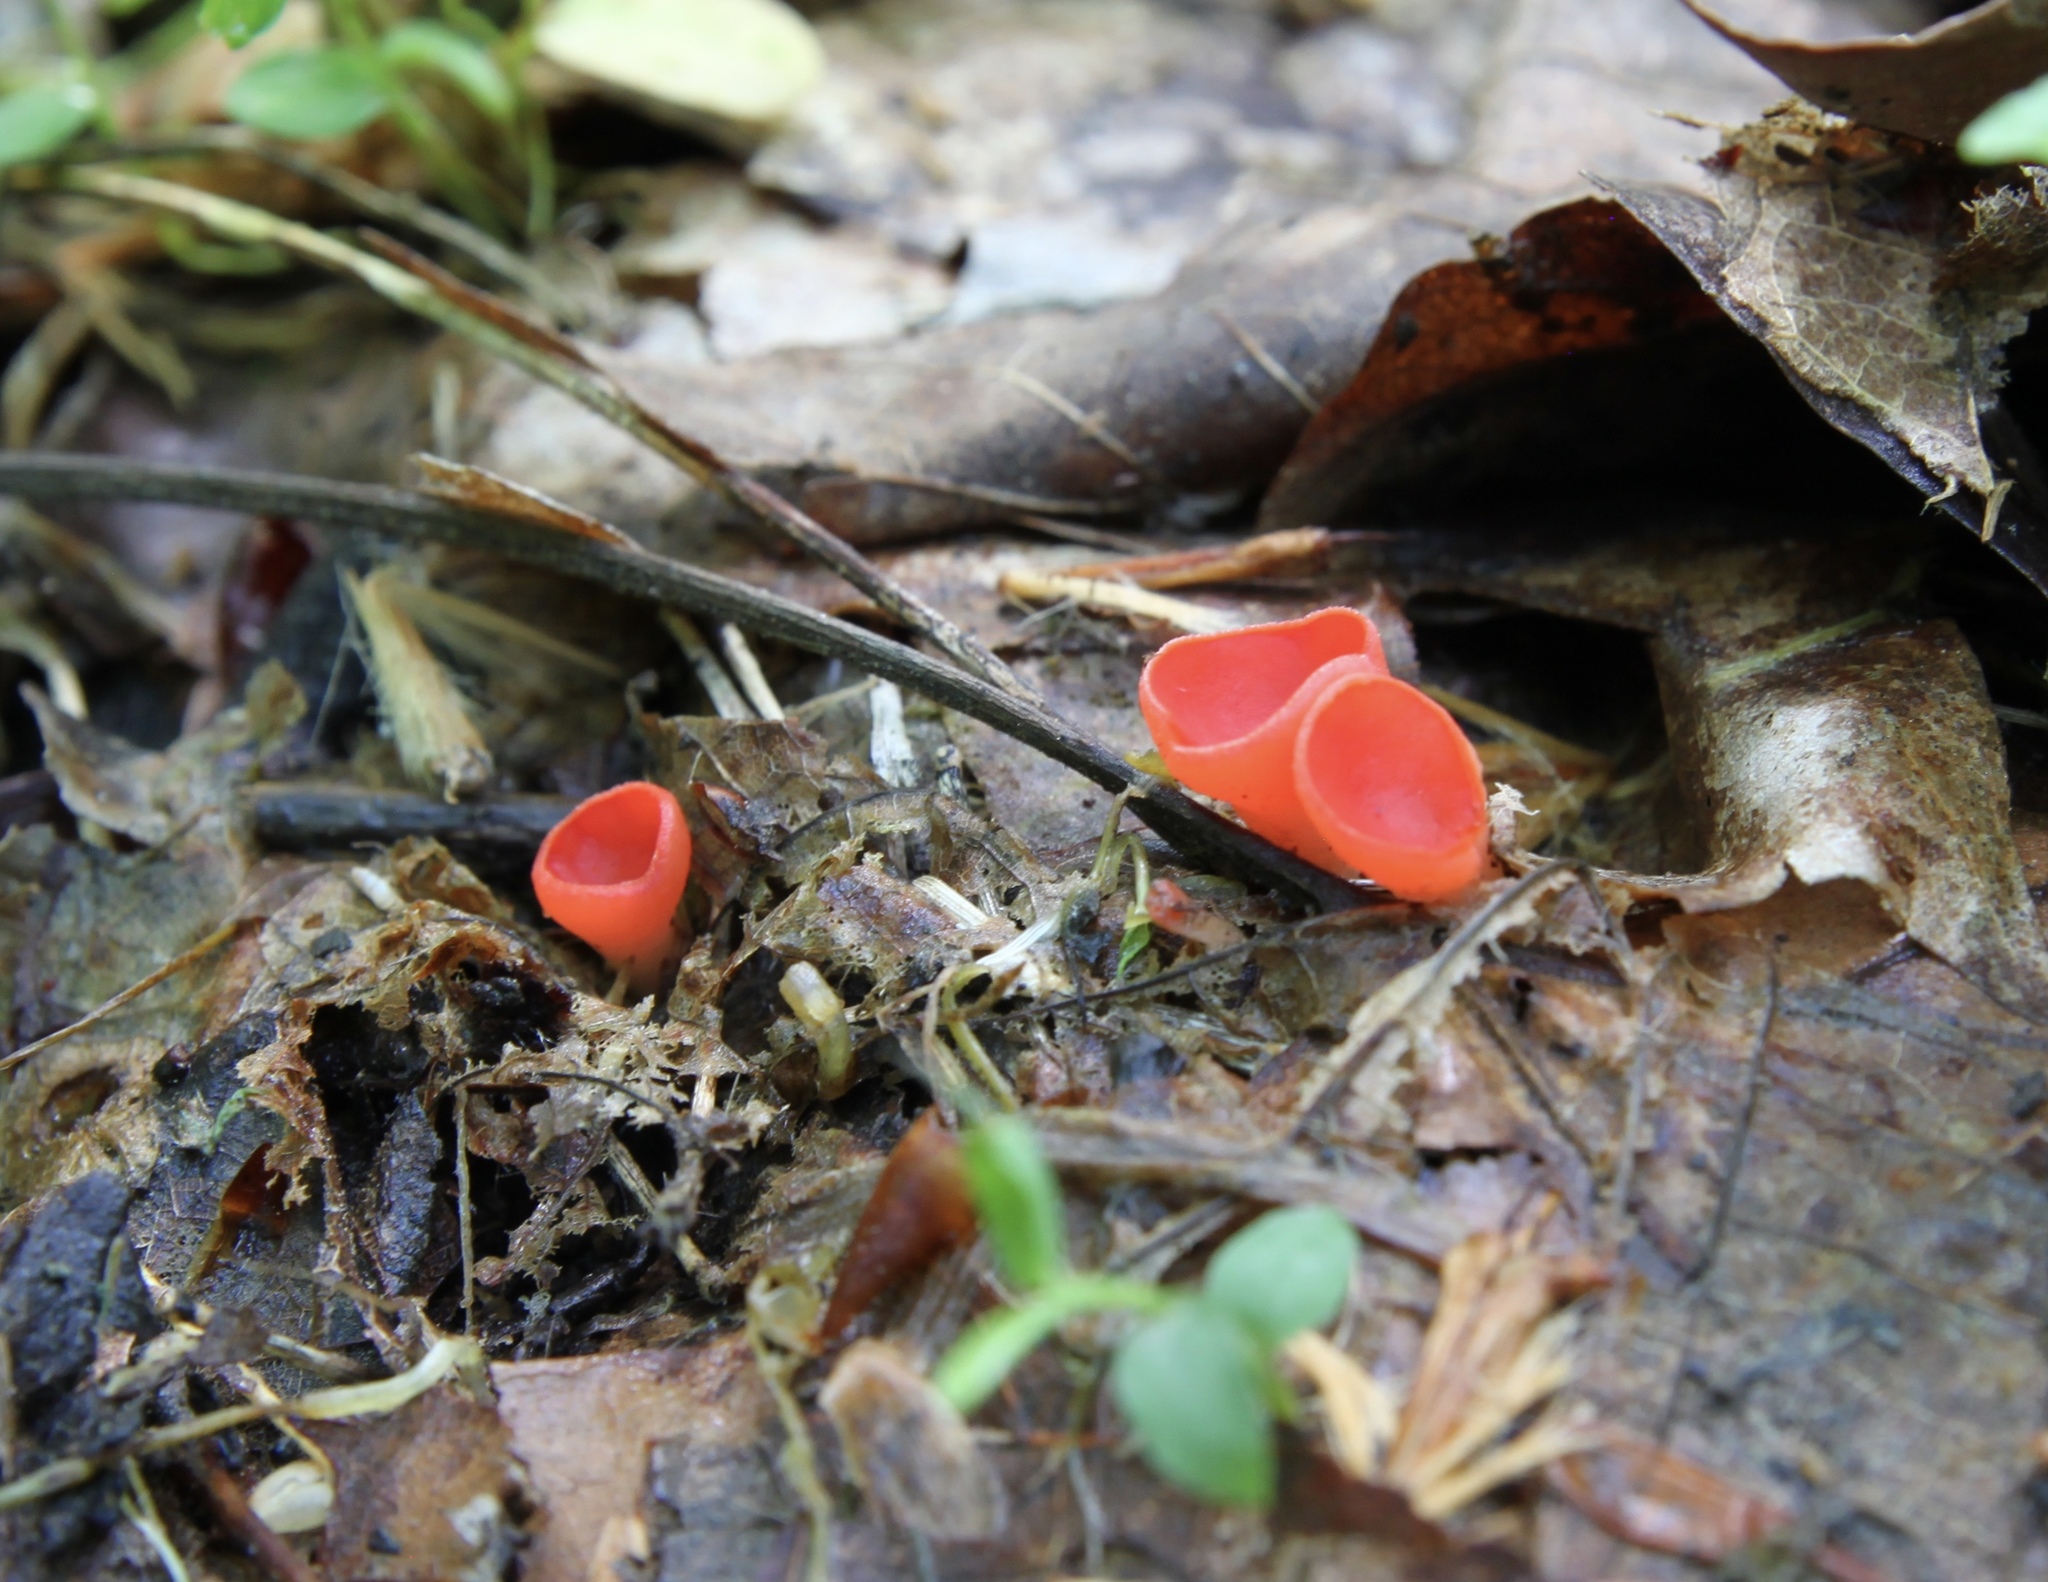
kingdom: Fungi
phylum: Ascomycota
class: Pezizomycetes
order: Pezizales
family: Sarcoscyphaceae
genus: Sarcoscypha
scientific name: Sarcoscypha occidentalis
